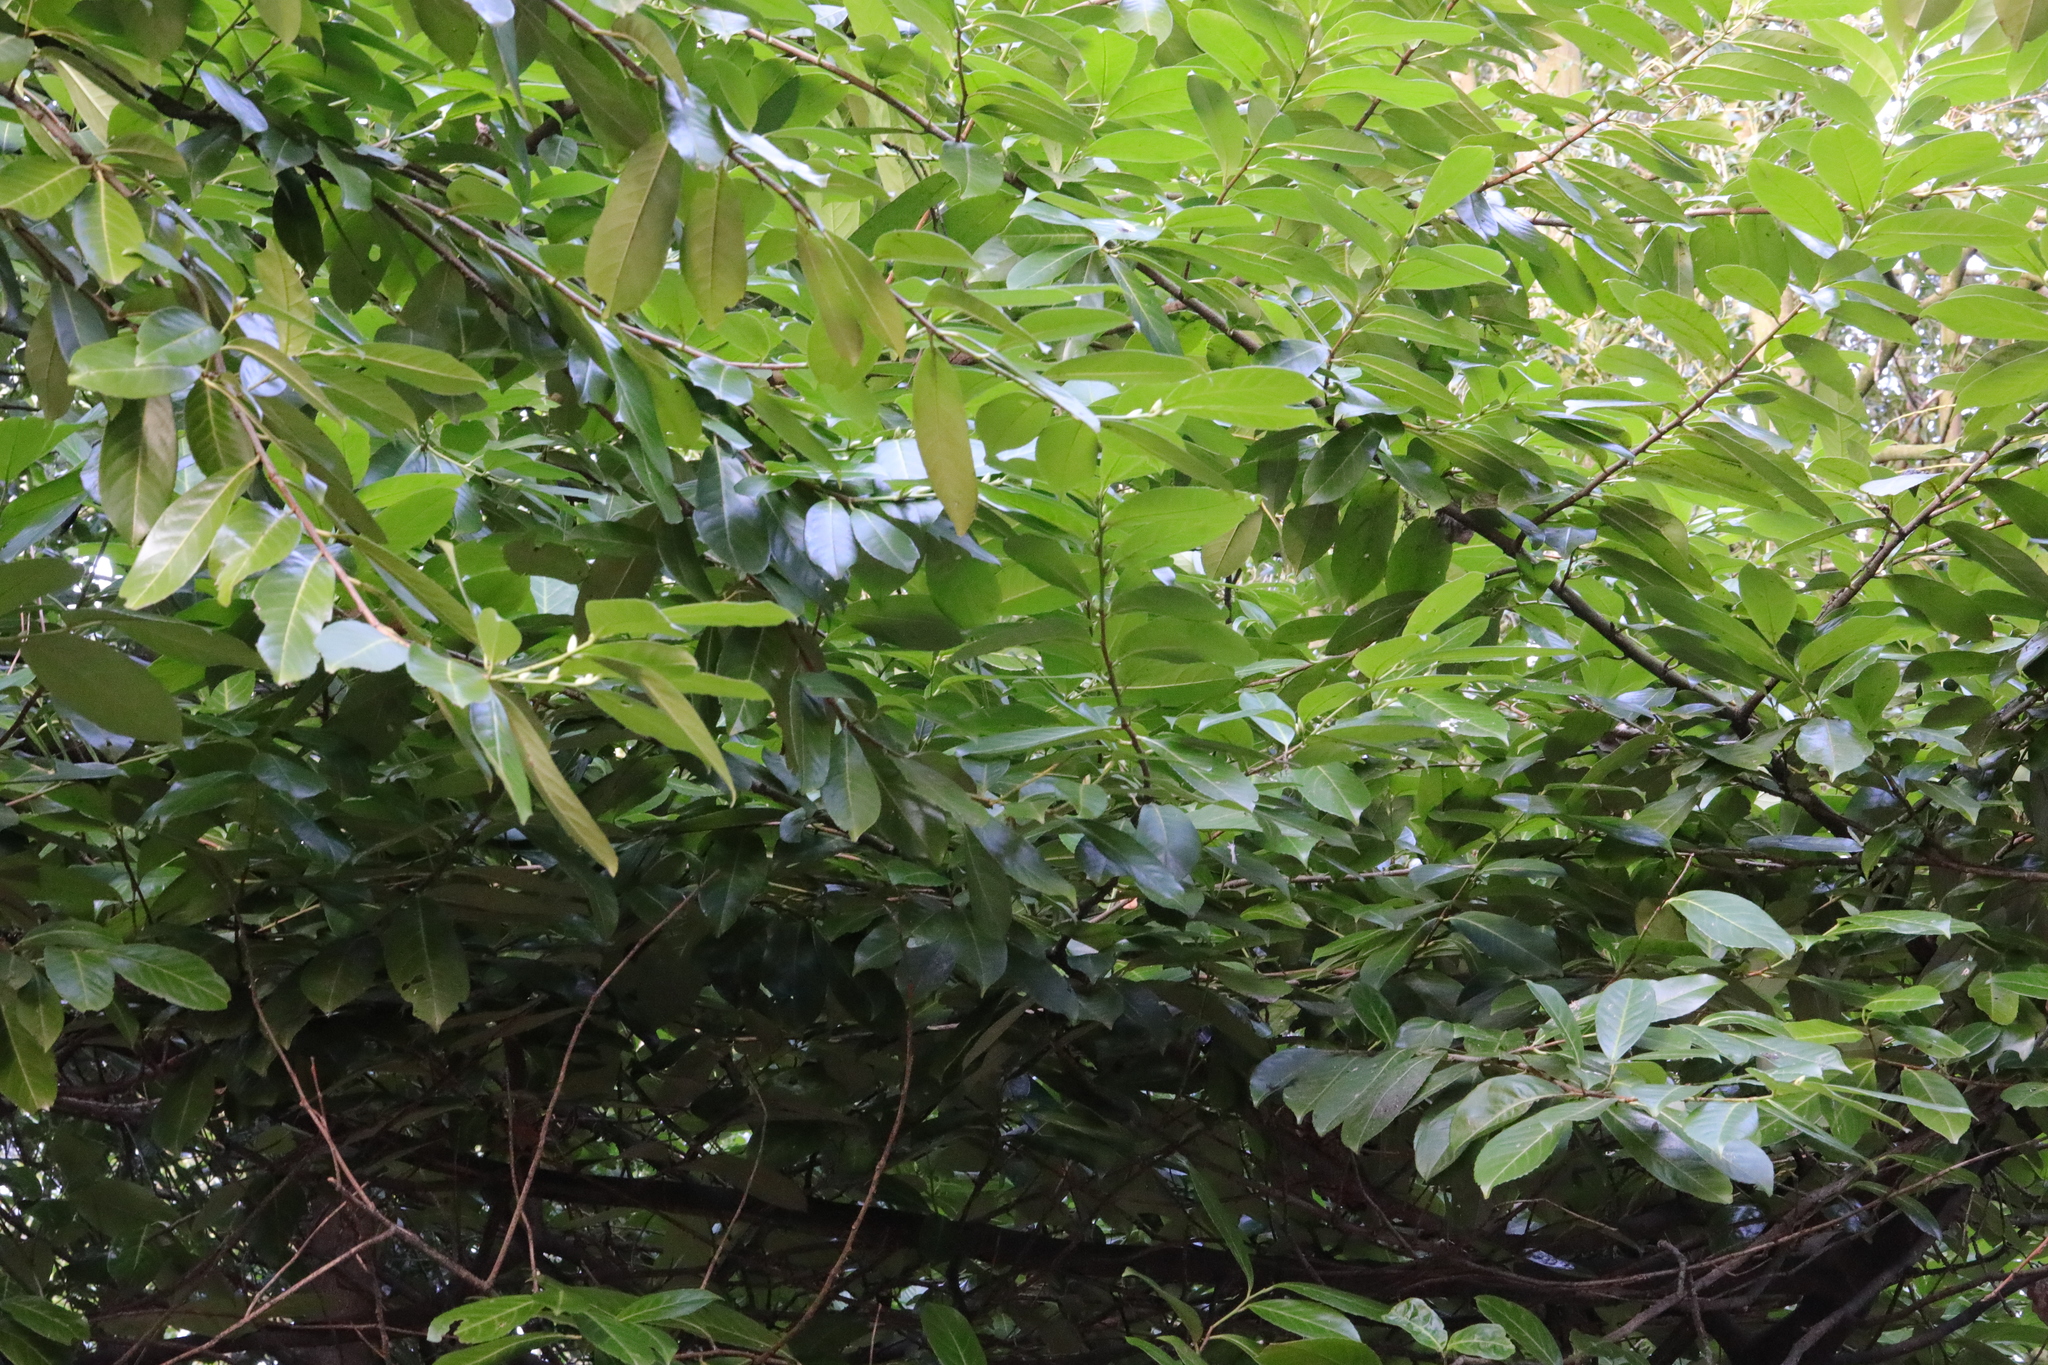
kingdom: Plantae
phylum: Tracheophyta
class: Magnoliopsida
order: Rosales
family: Rosaceae
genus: Prunus
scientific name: Prunus laurocerasus
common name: Cherry laurel
